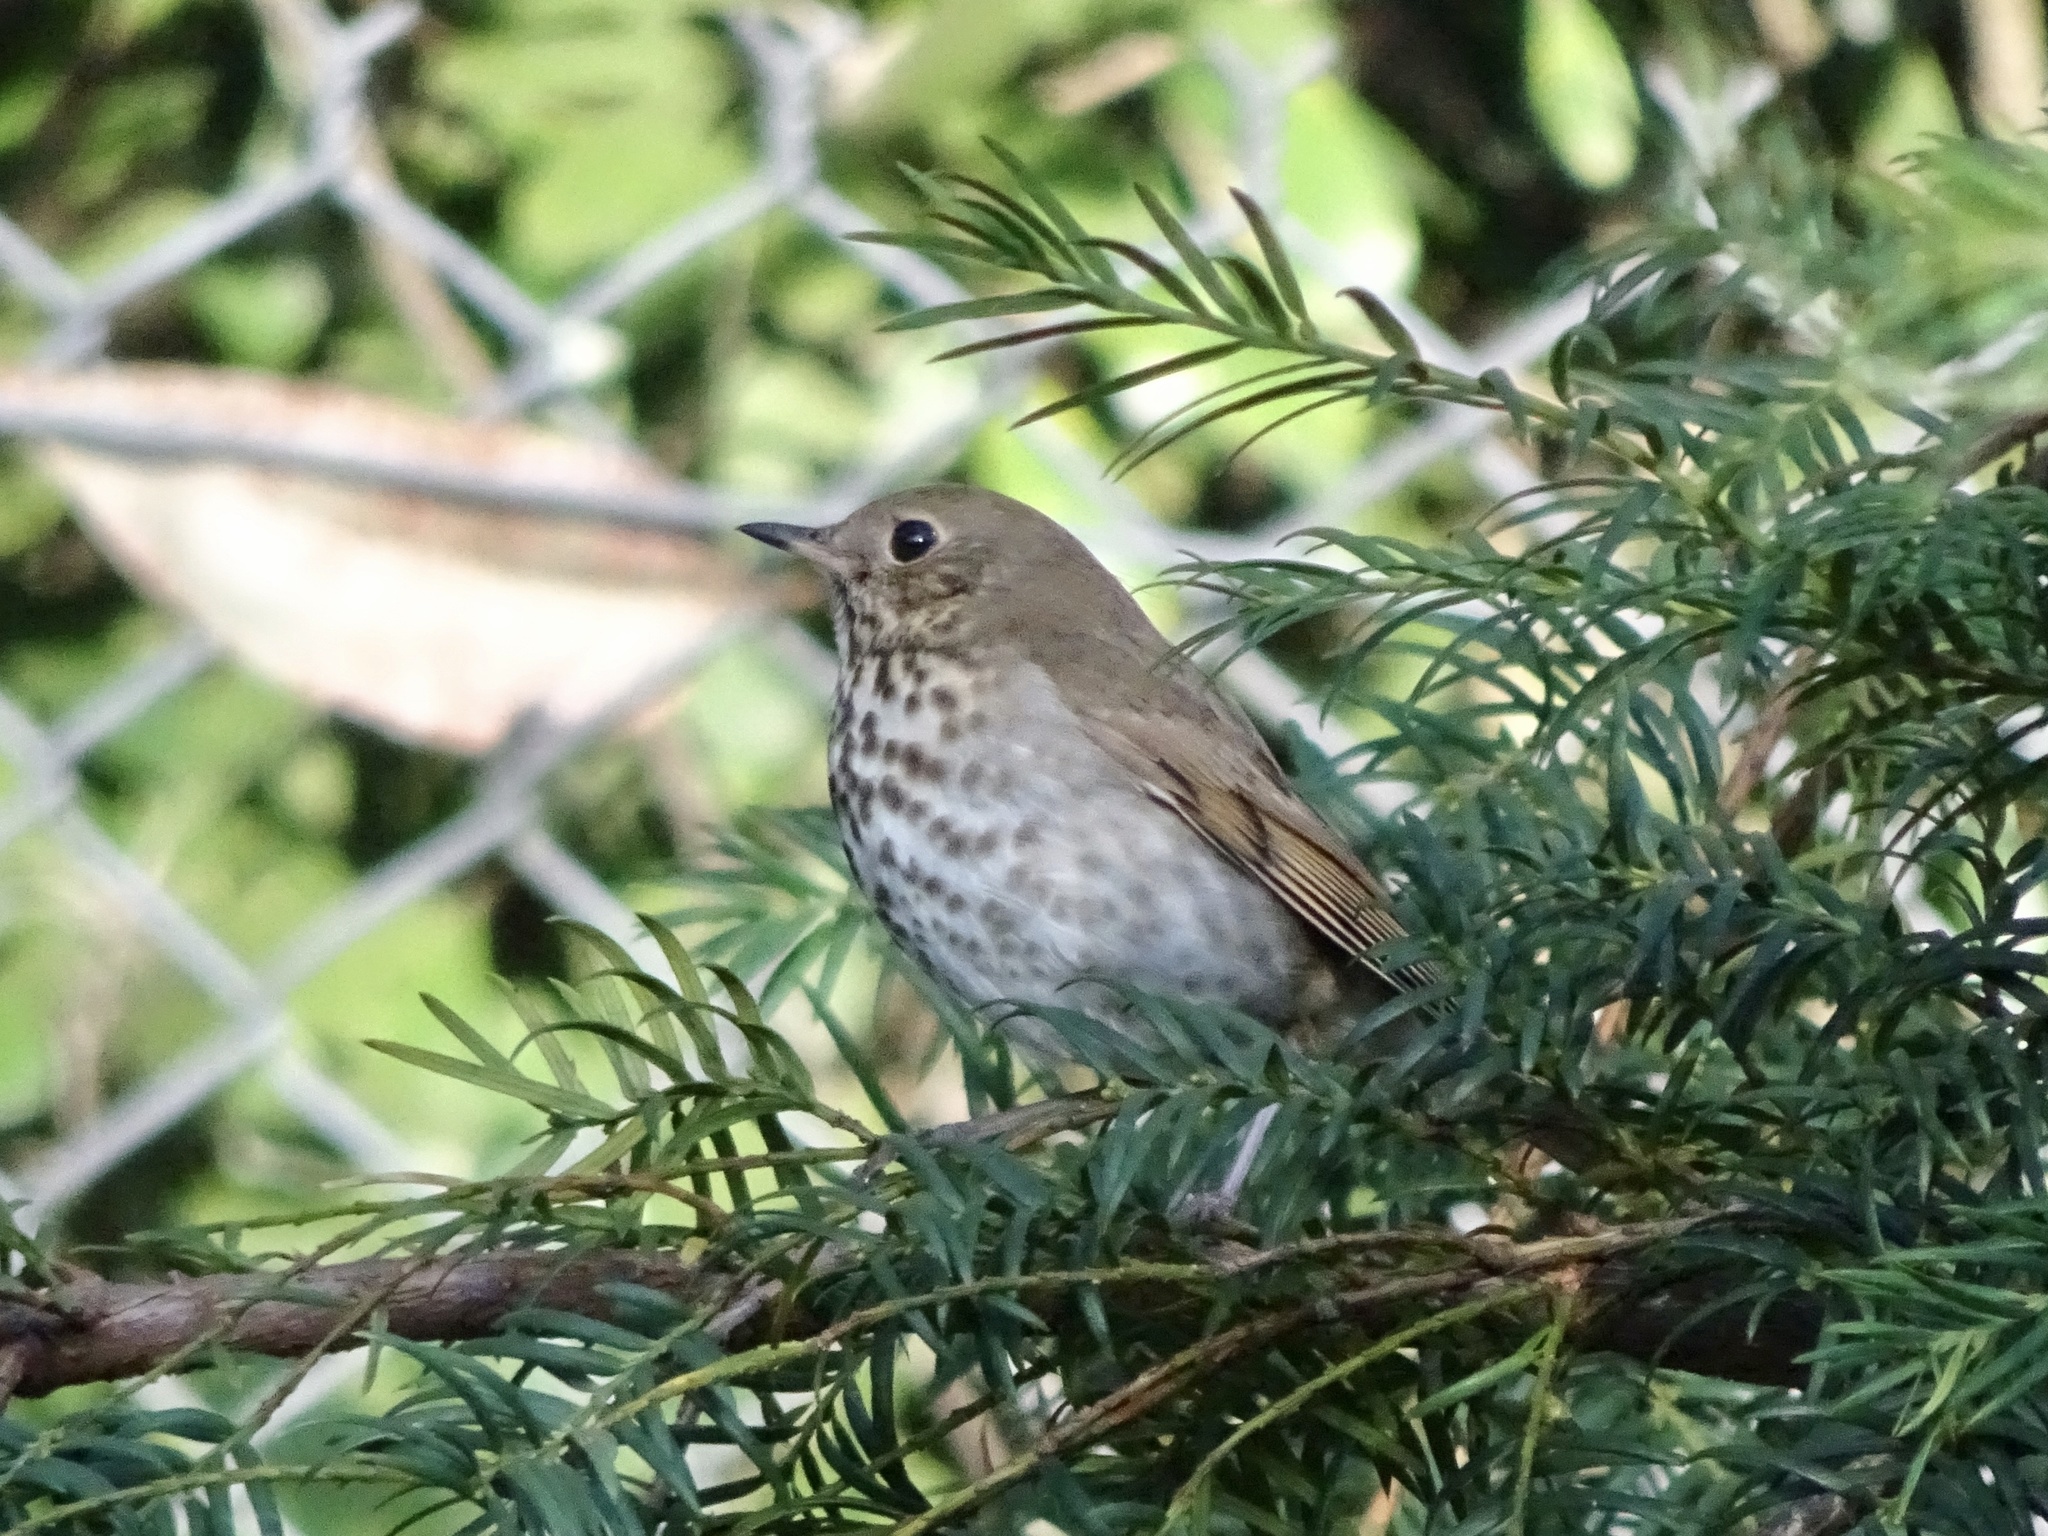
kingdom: Animalia
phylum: Chordata
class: Aves
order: Passeriformes
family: Turdidae
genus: Catharus
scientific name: Catharus guttatus
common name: Hermit thrush
